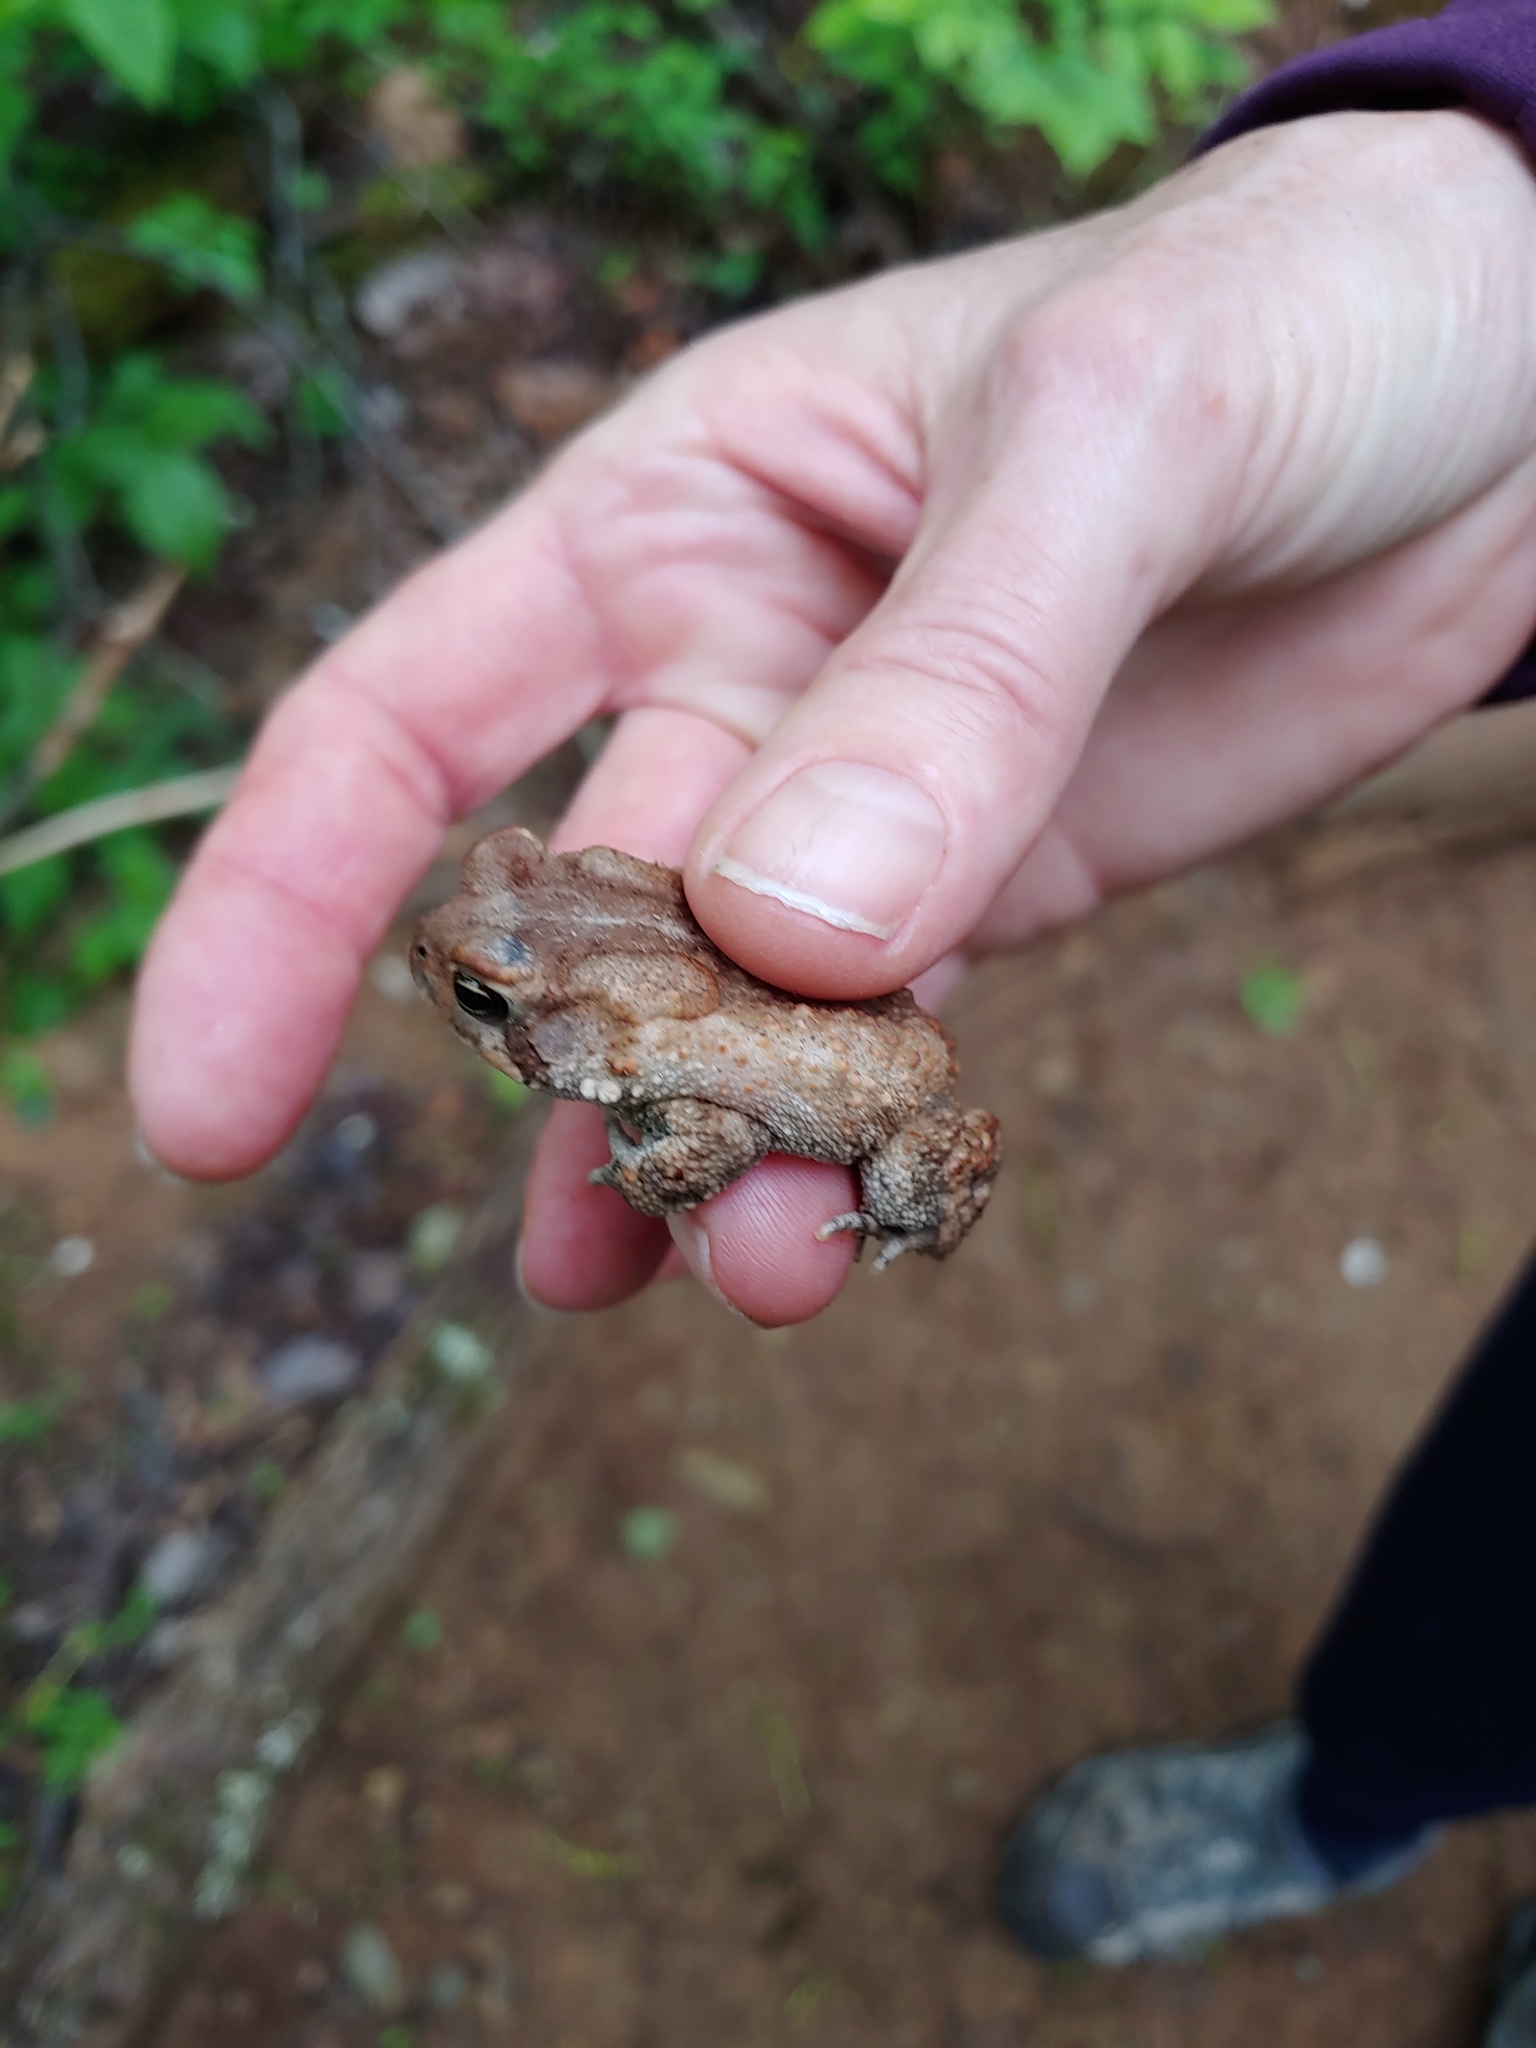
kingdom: Animalia
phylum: Chordata
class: Amphibia
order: Anura
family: Bufonidae
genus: Anaxyrus
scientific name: Anaxyrus americanus
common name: American toad
